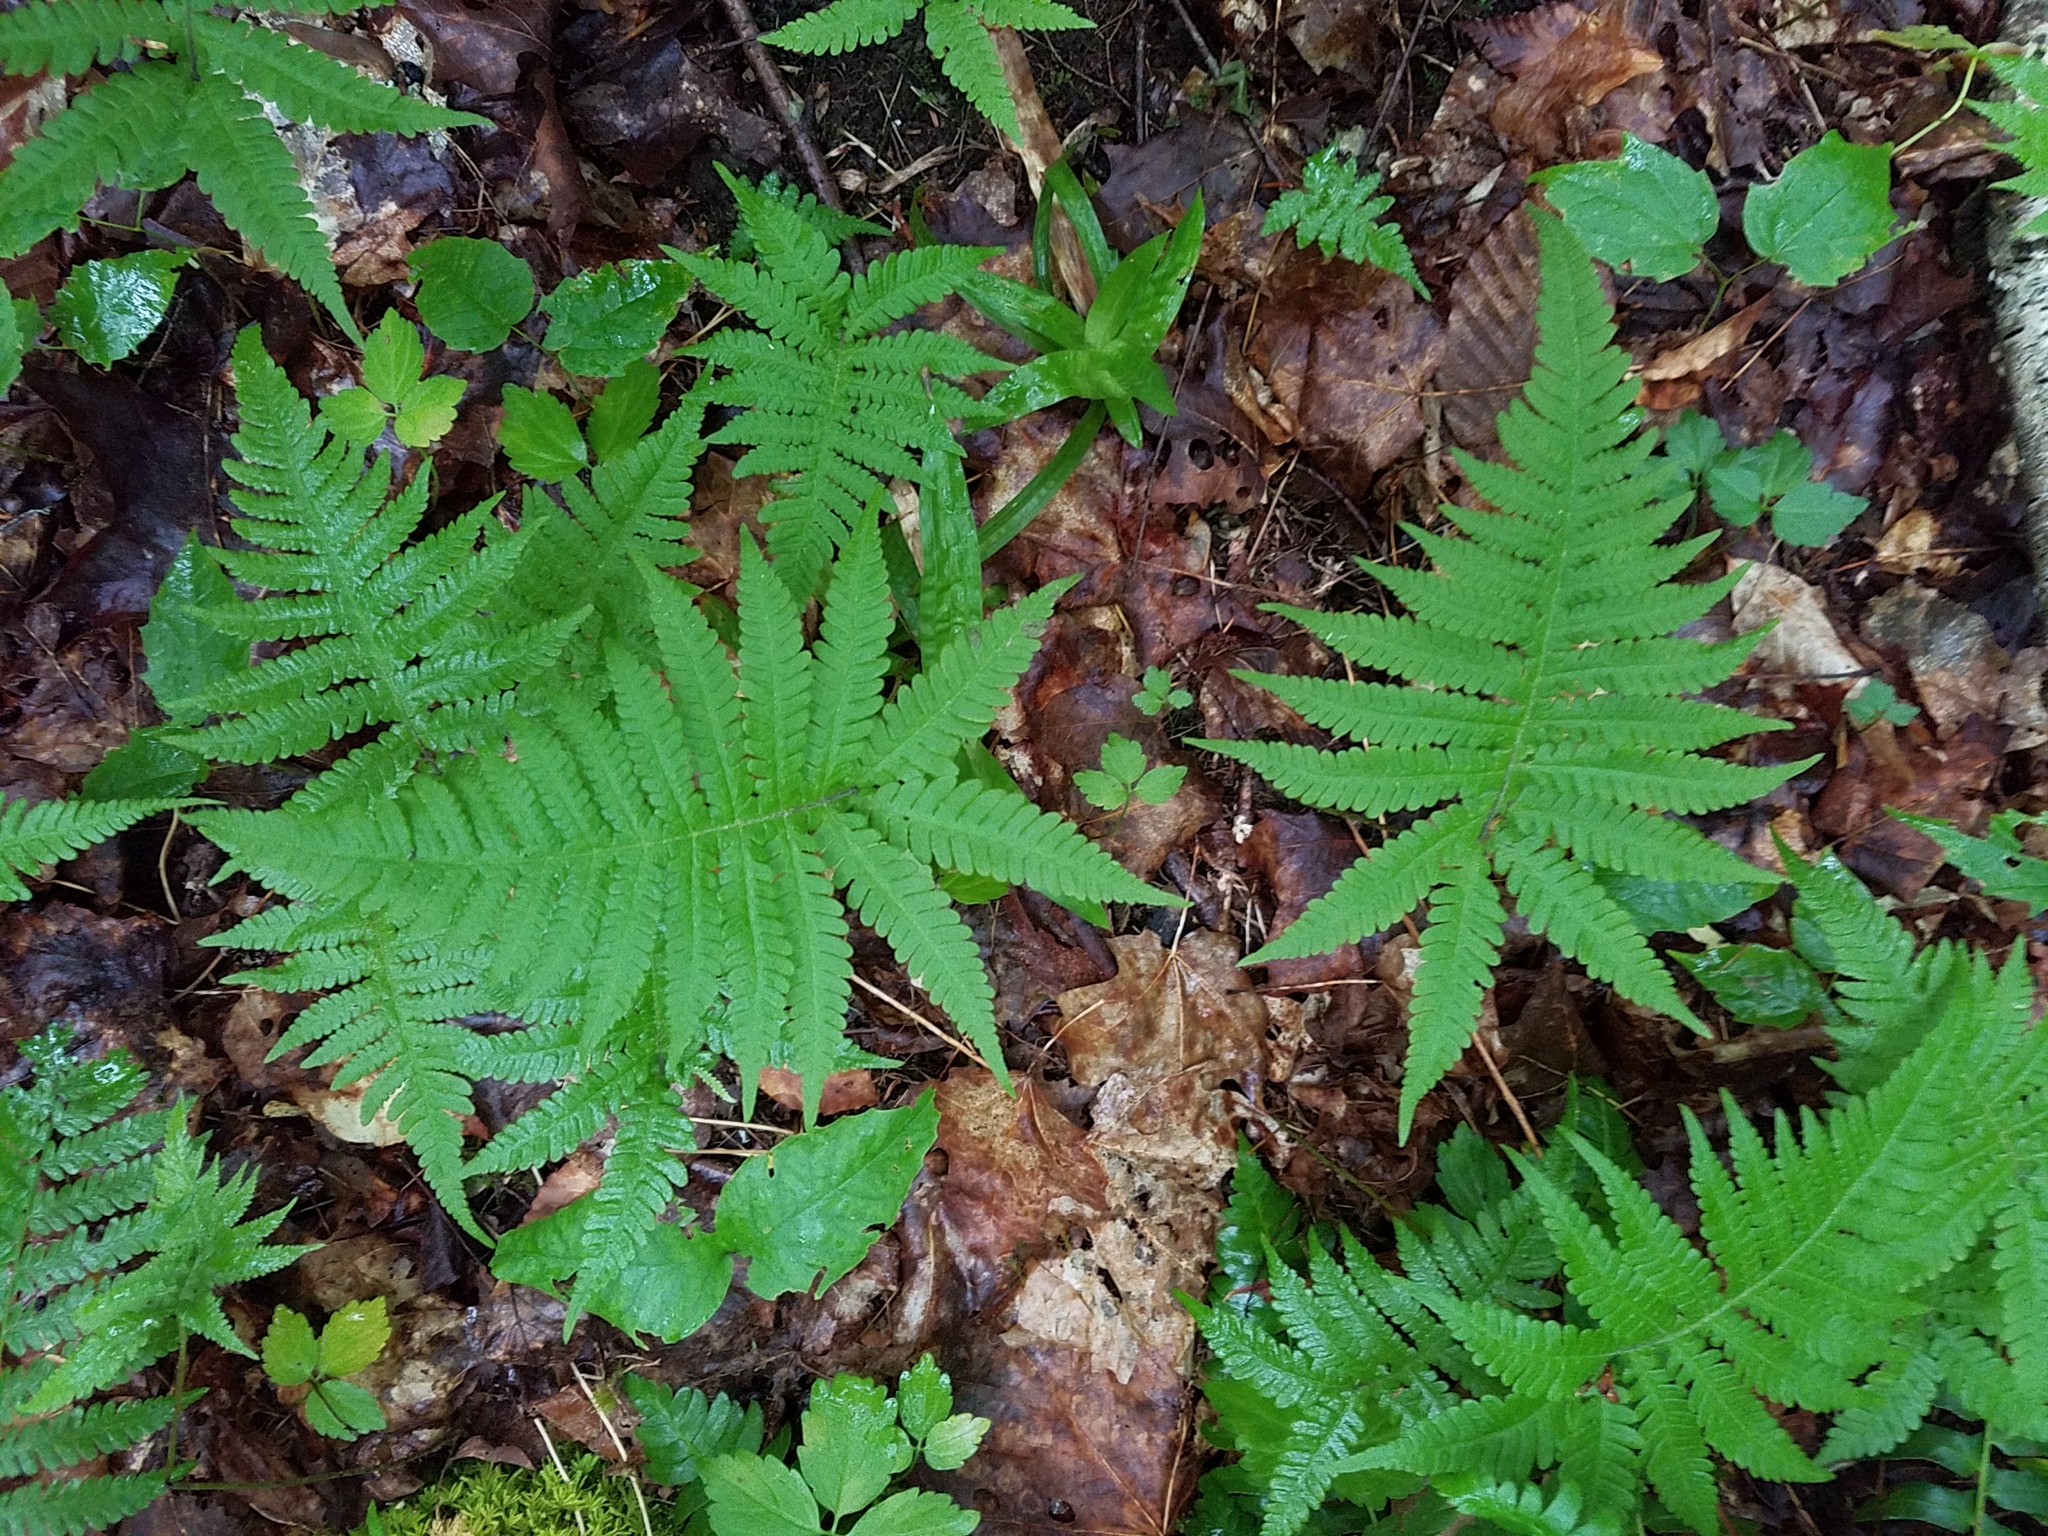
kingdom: Plantae
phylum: Tracheophyta
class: Polypodiopsida
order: Polypodiales
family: Thelypteridaceae
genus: Phegopteris
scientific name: Phegopteris connectilis
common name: Beech fern
